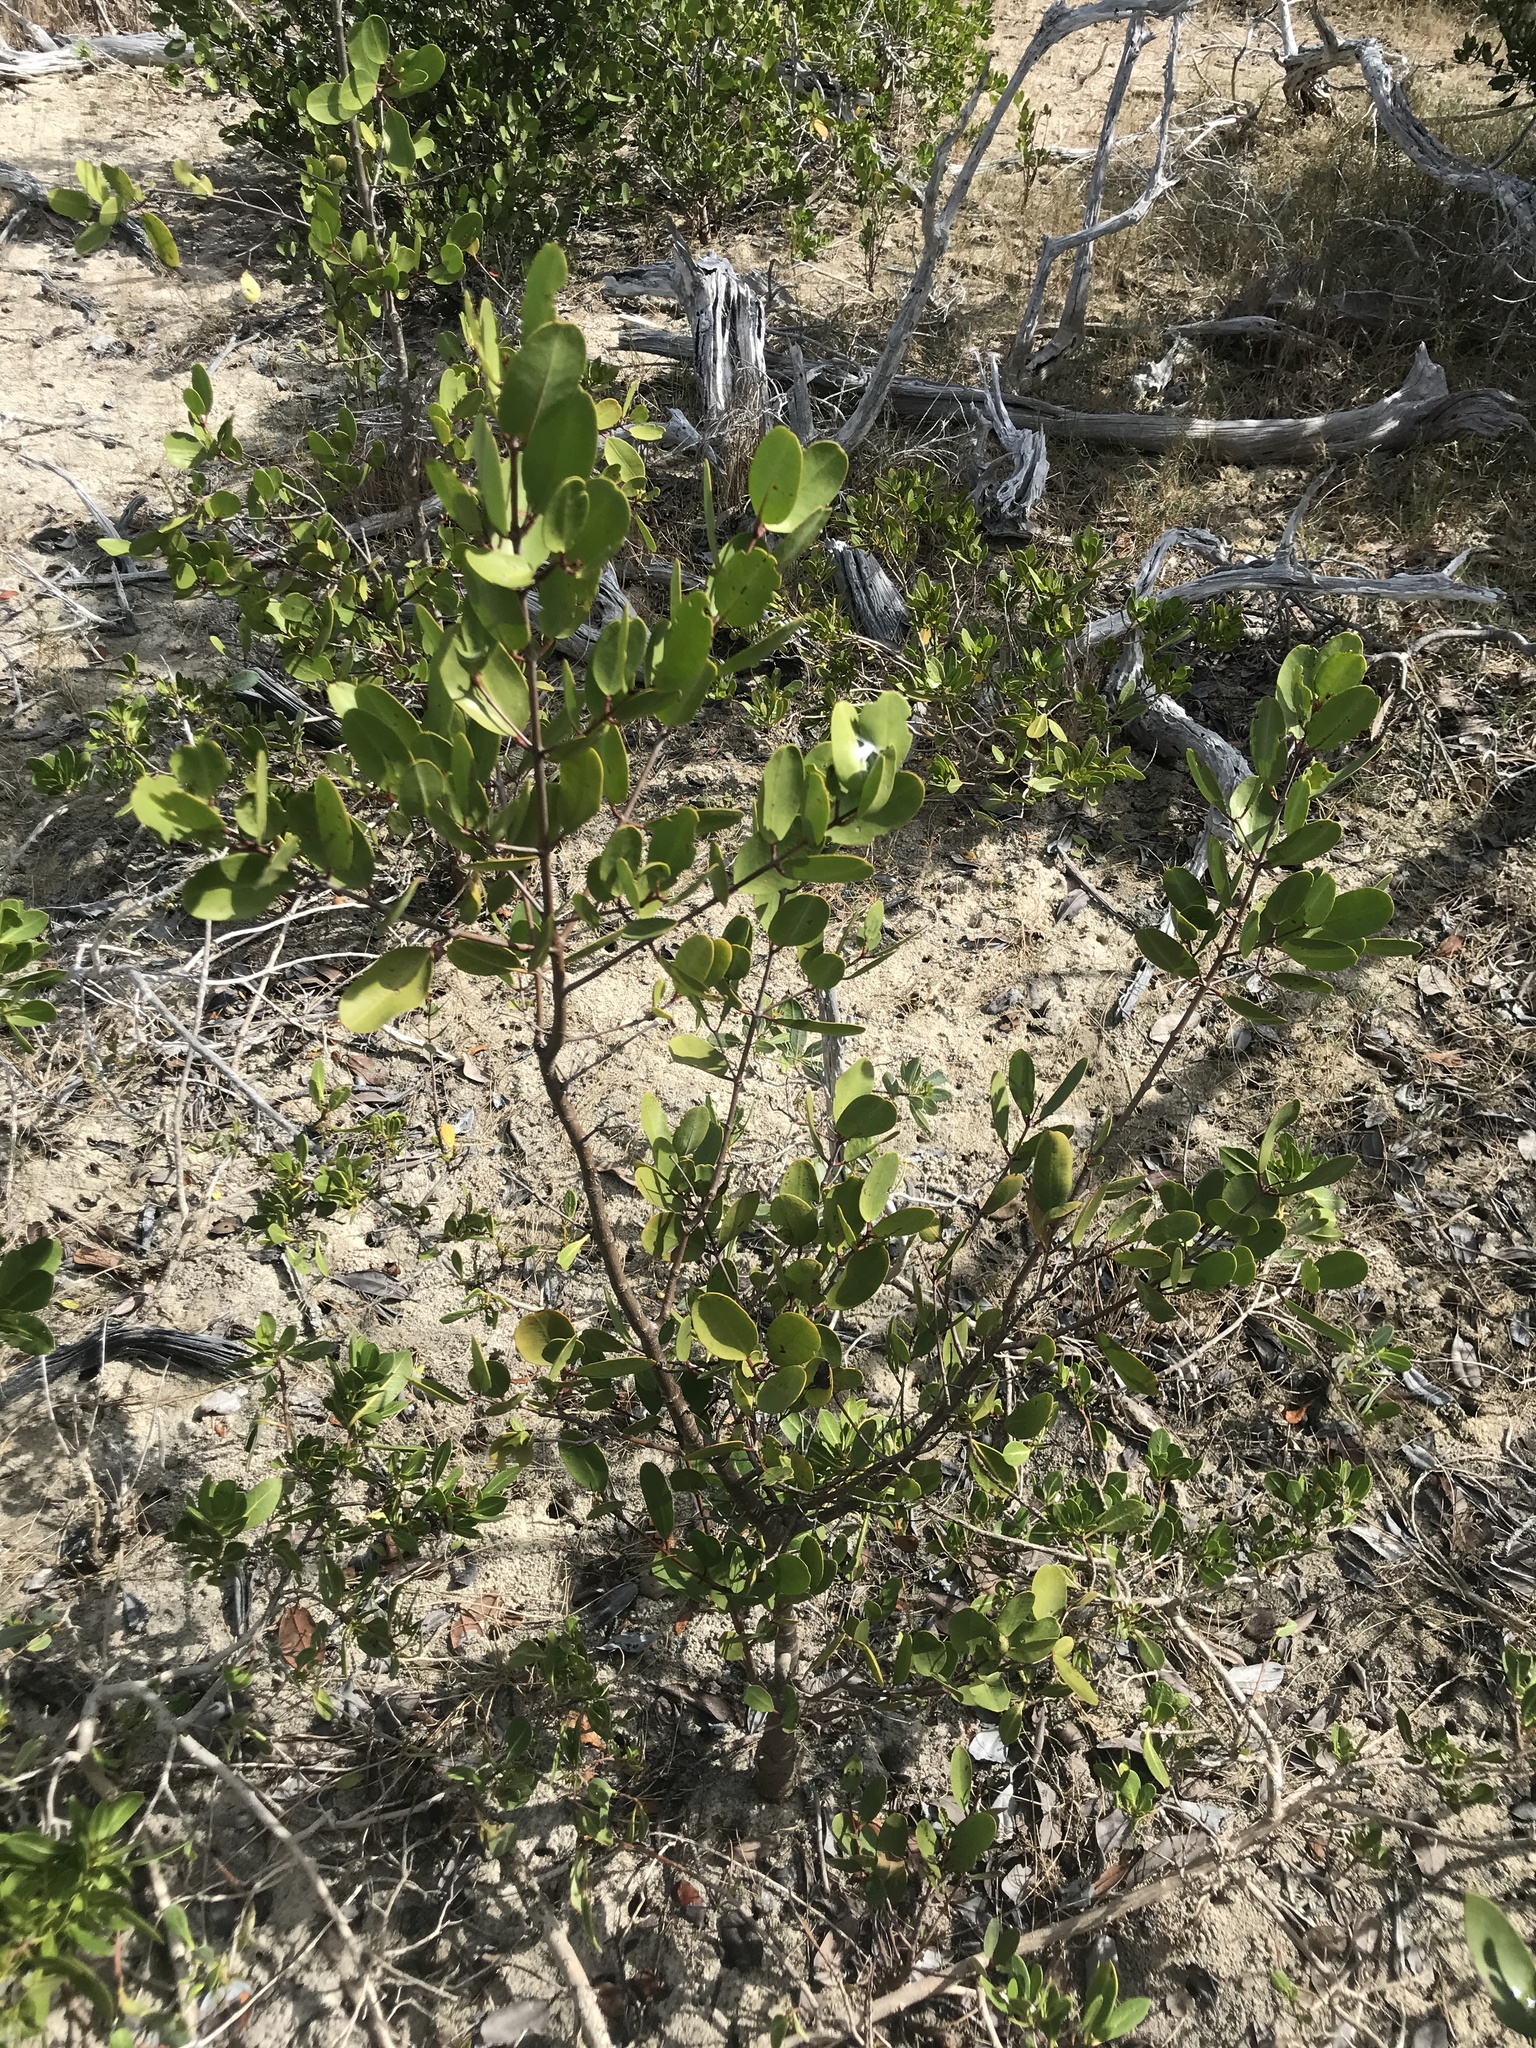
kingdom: Plantae
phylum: Tracheophyta
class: Magnoliopsida
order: Myrtales
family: Combretaceae
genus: Laguncularia
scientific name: Laguncularia racemosa
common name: White mangrove
